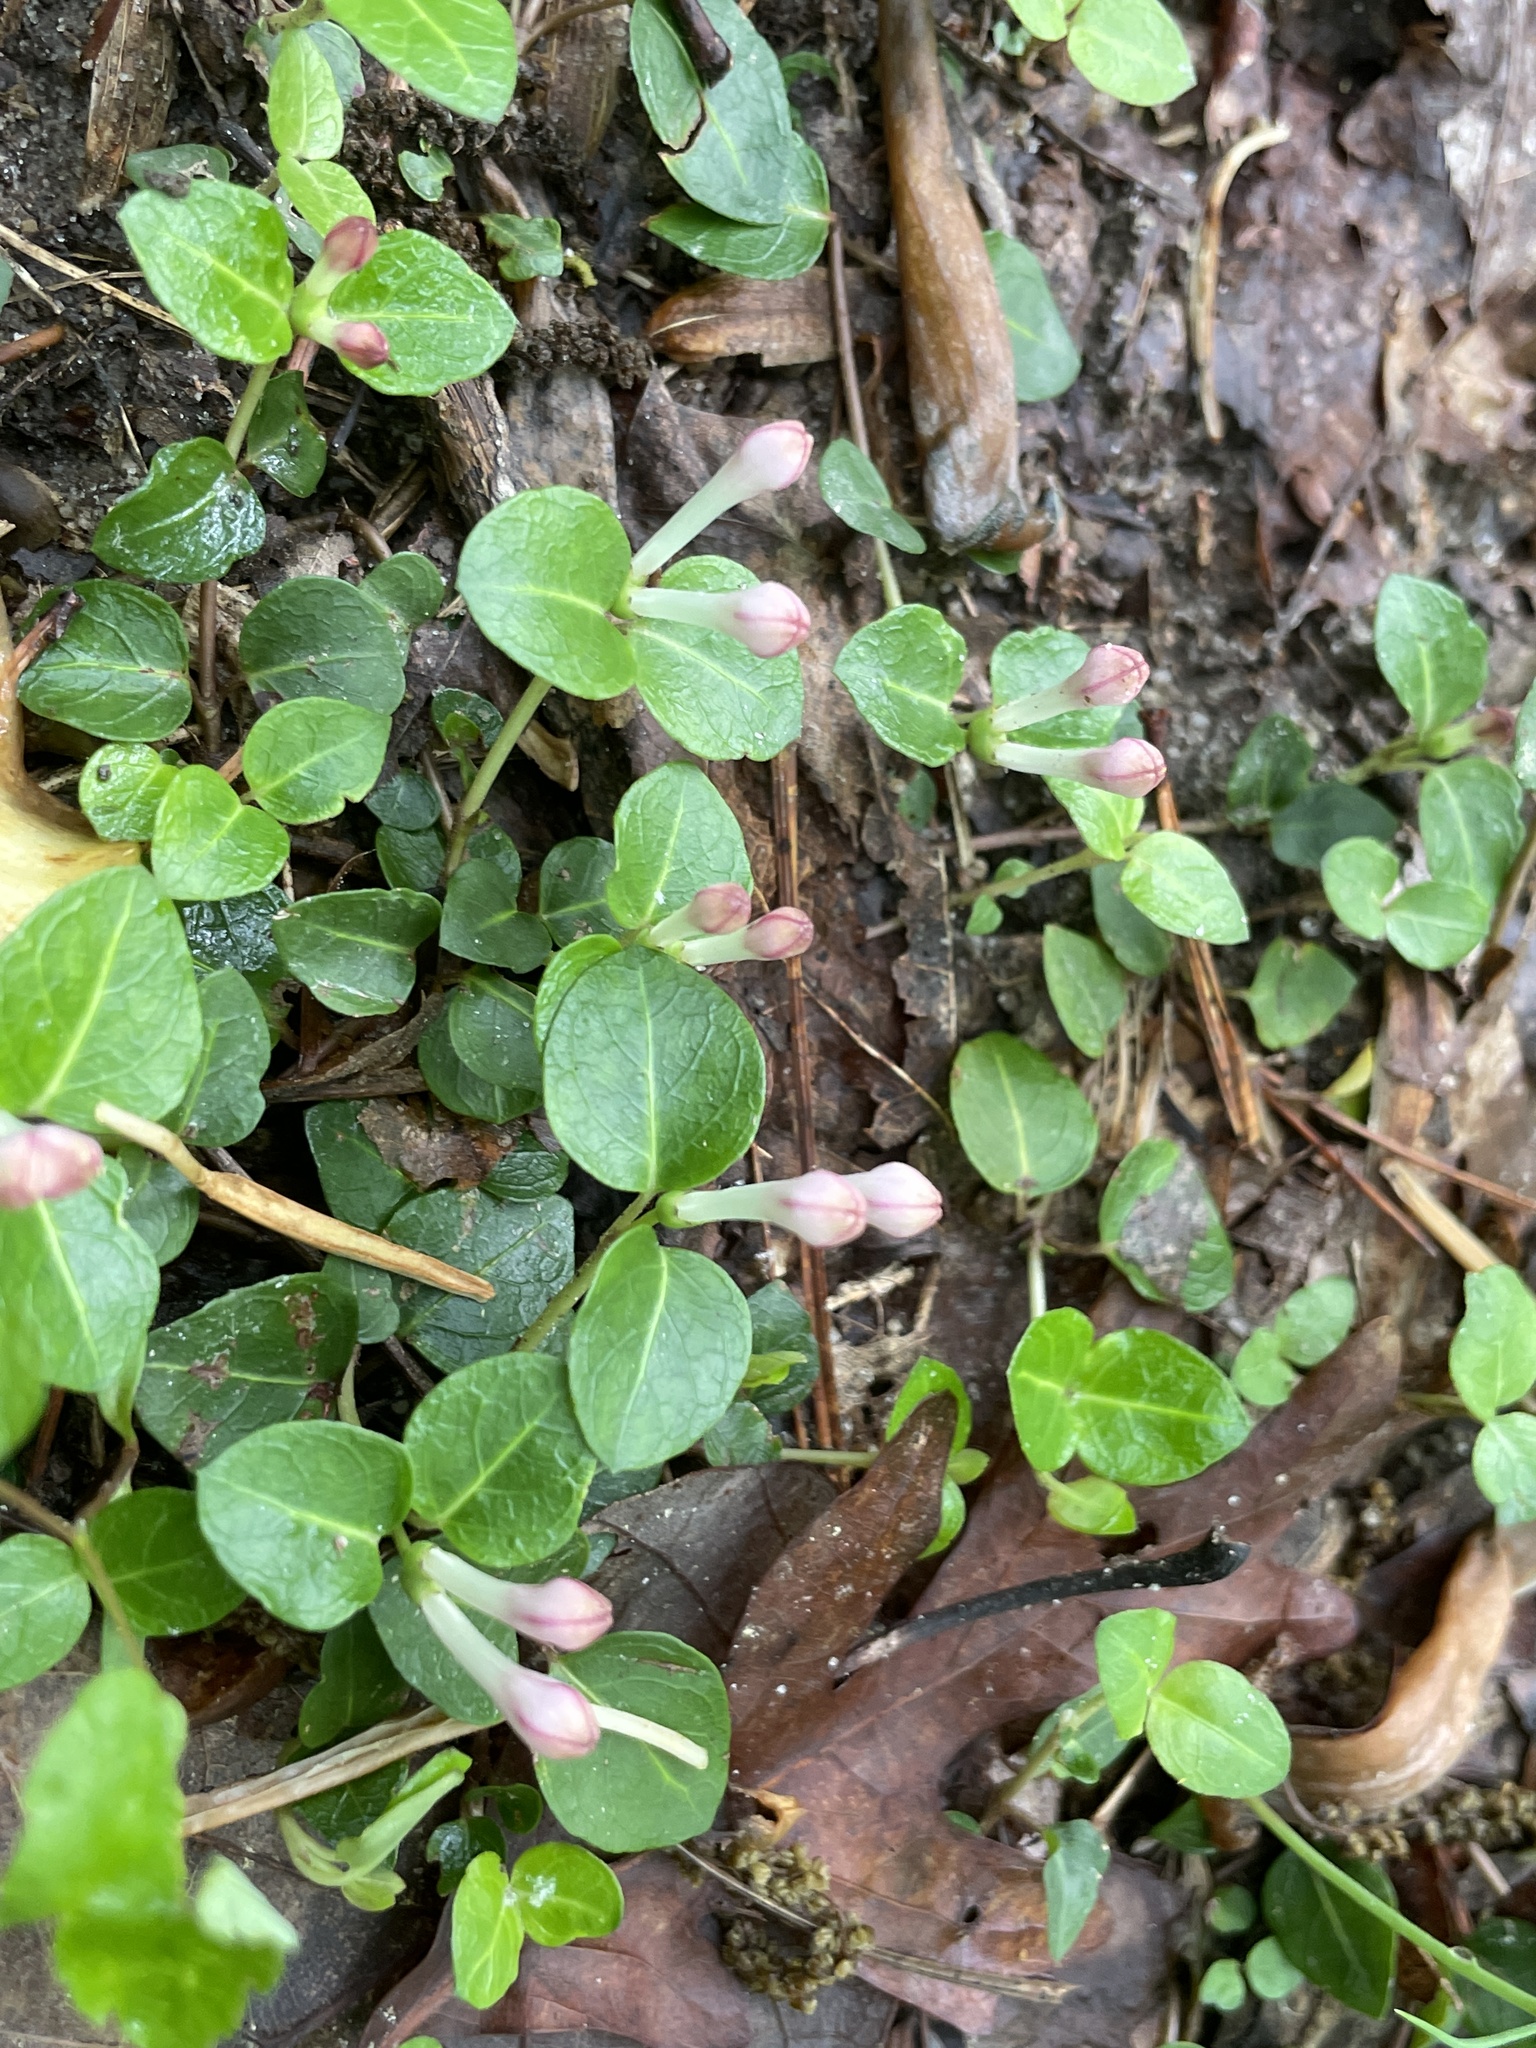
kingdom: Plantae
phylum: Tracheophyta
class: Magnoliopsida
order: Gentianales
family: Rubiaceae
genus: Mitchella
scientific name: Mitchella repens
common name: Partridge-berry
